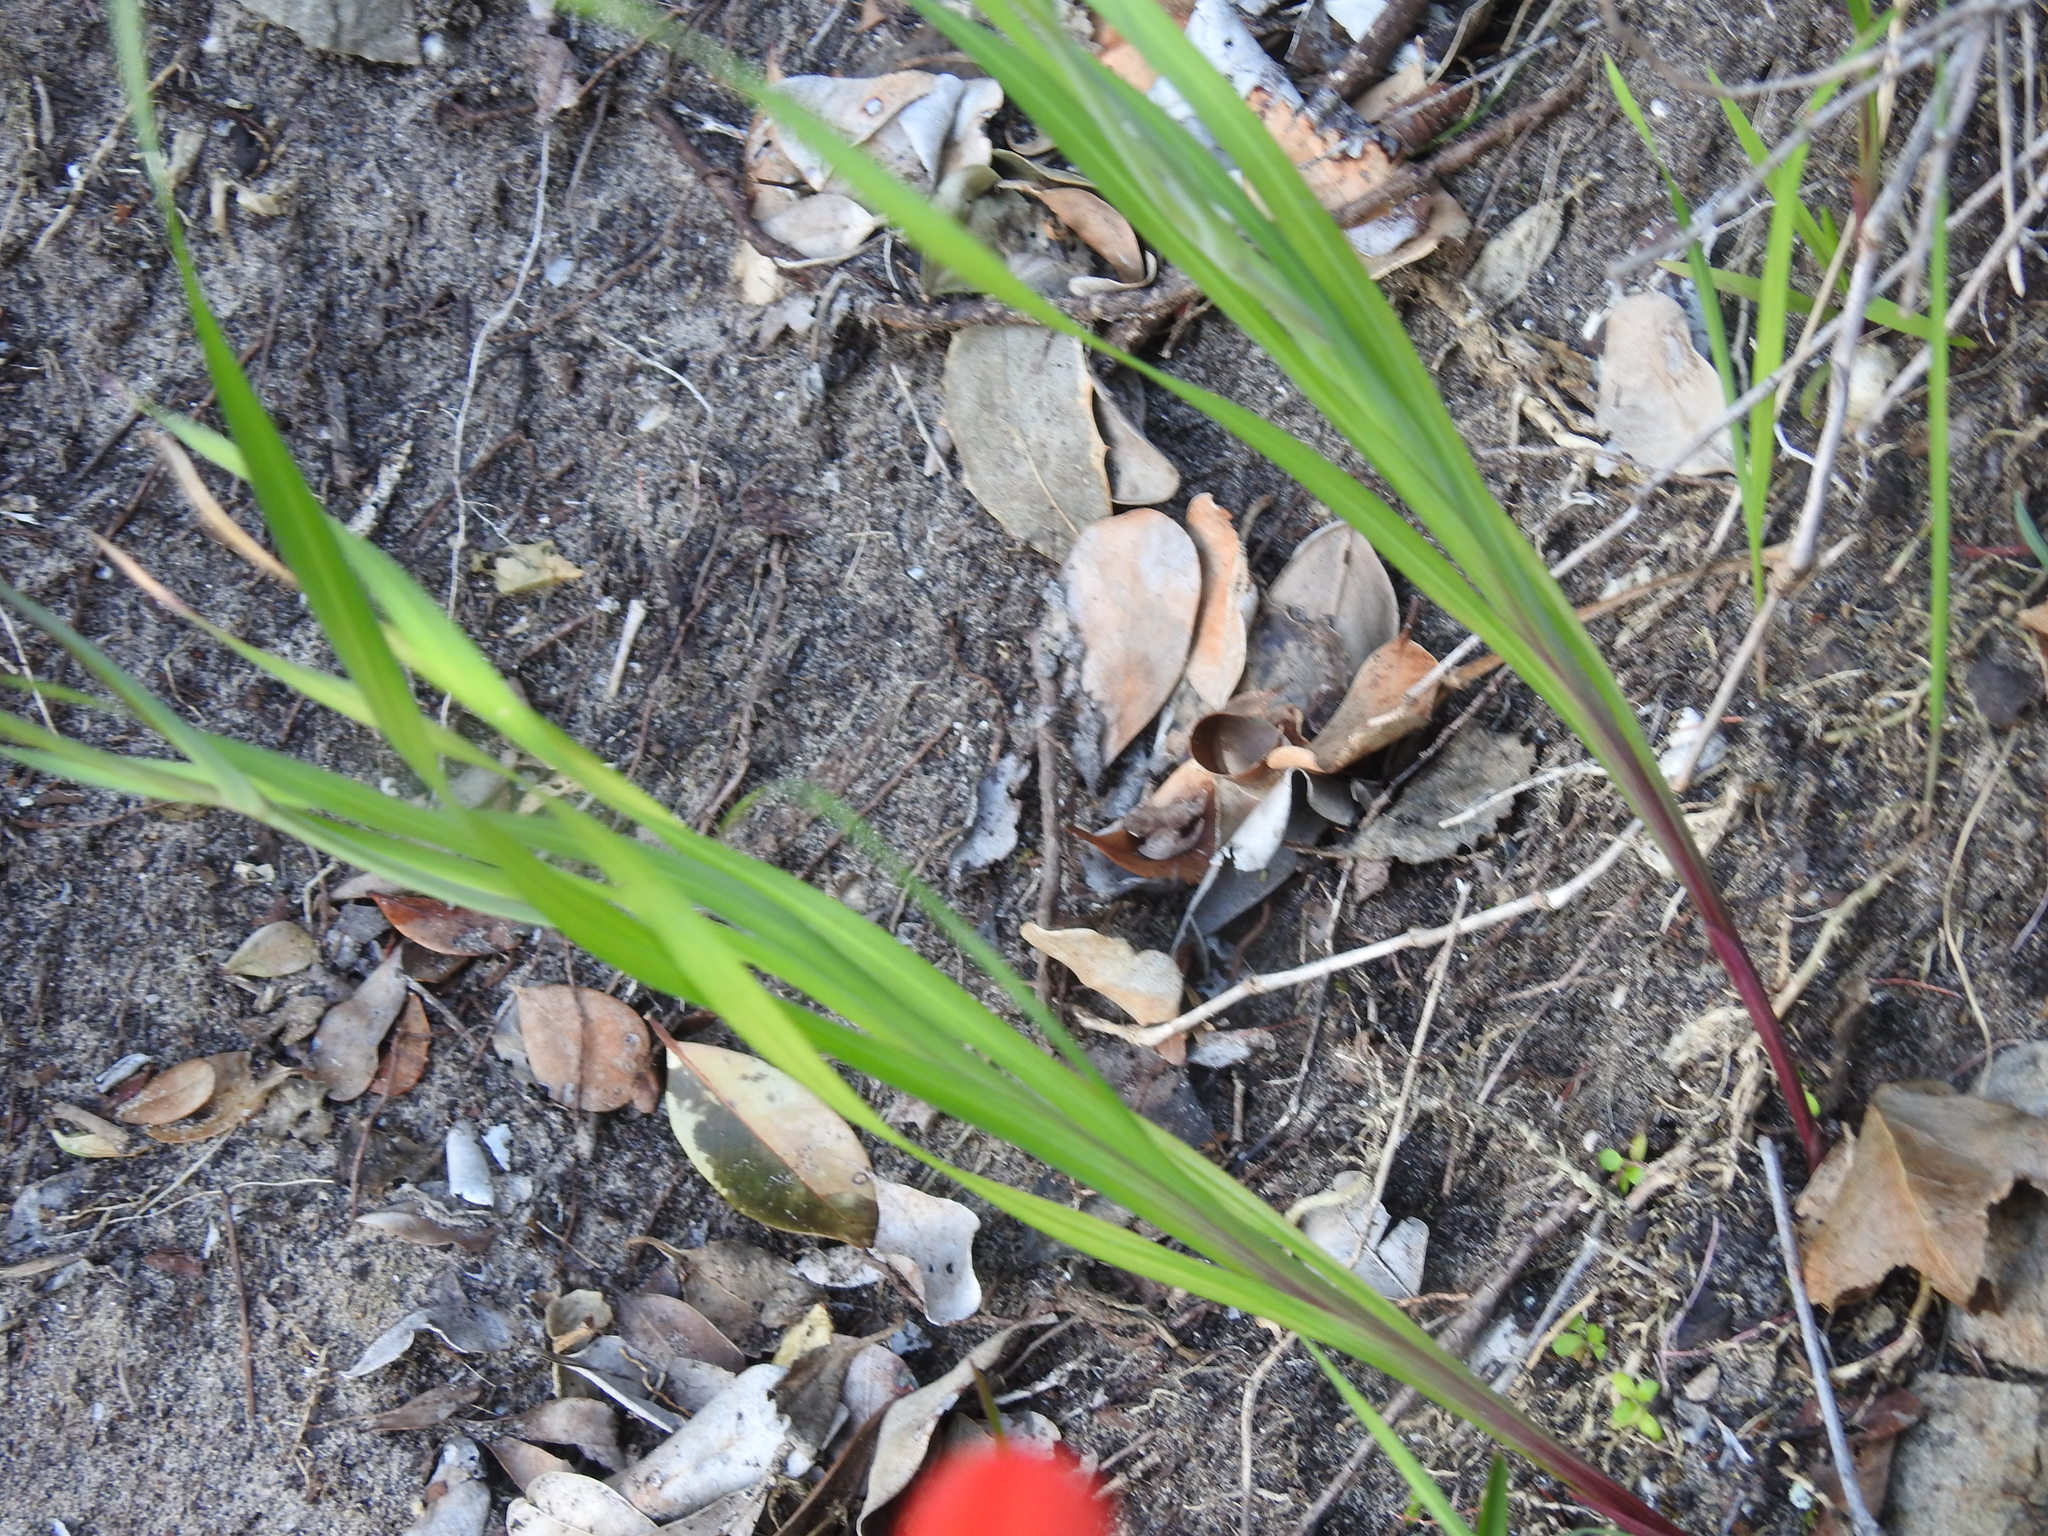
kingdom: Plantae
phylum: Tracheophyta
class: Liliopsida
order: Asparagales
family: Iridaceae
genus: Gladiolus
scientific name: Gladiolus cunonius
